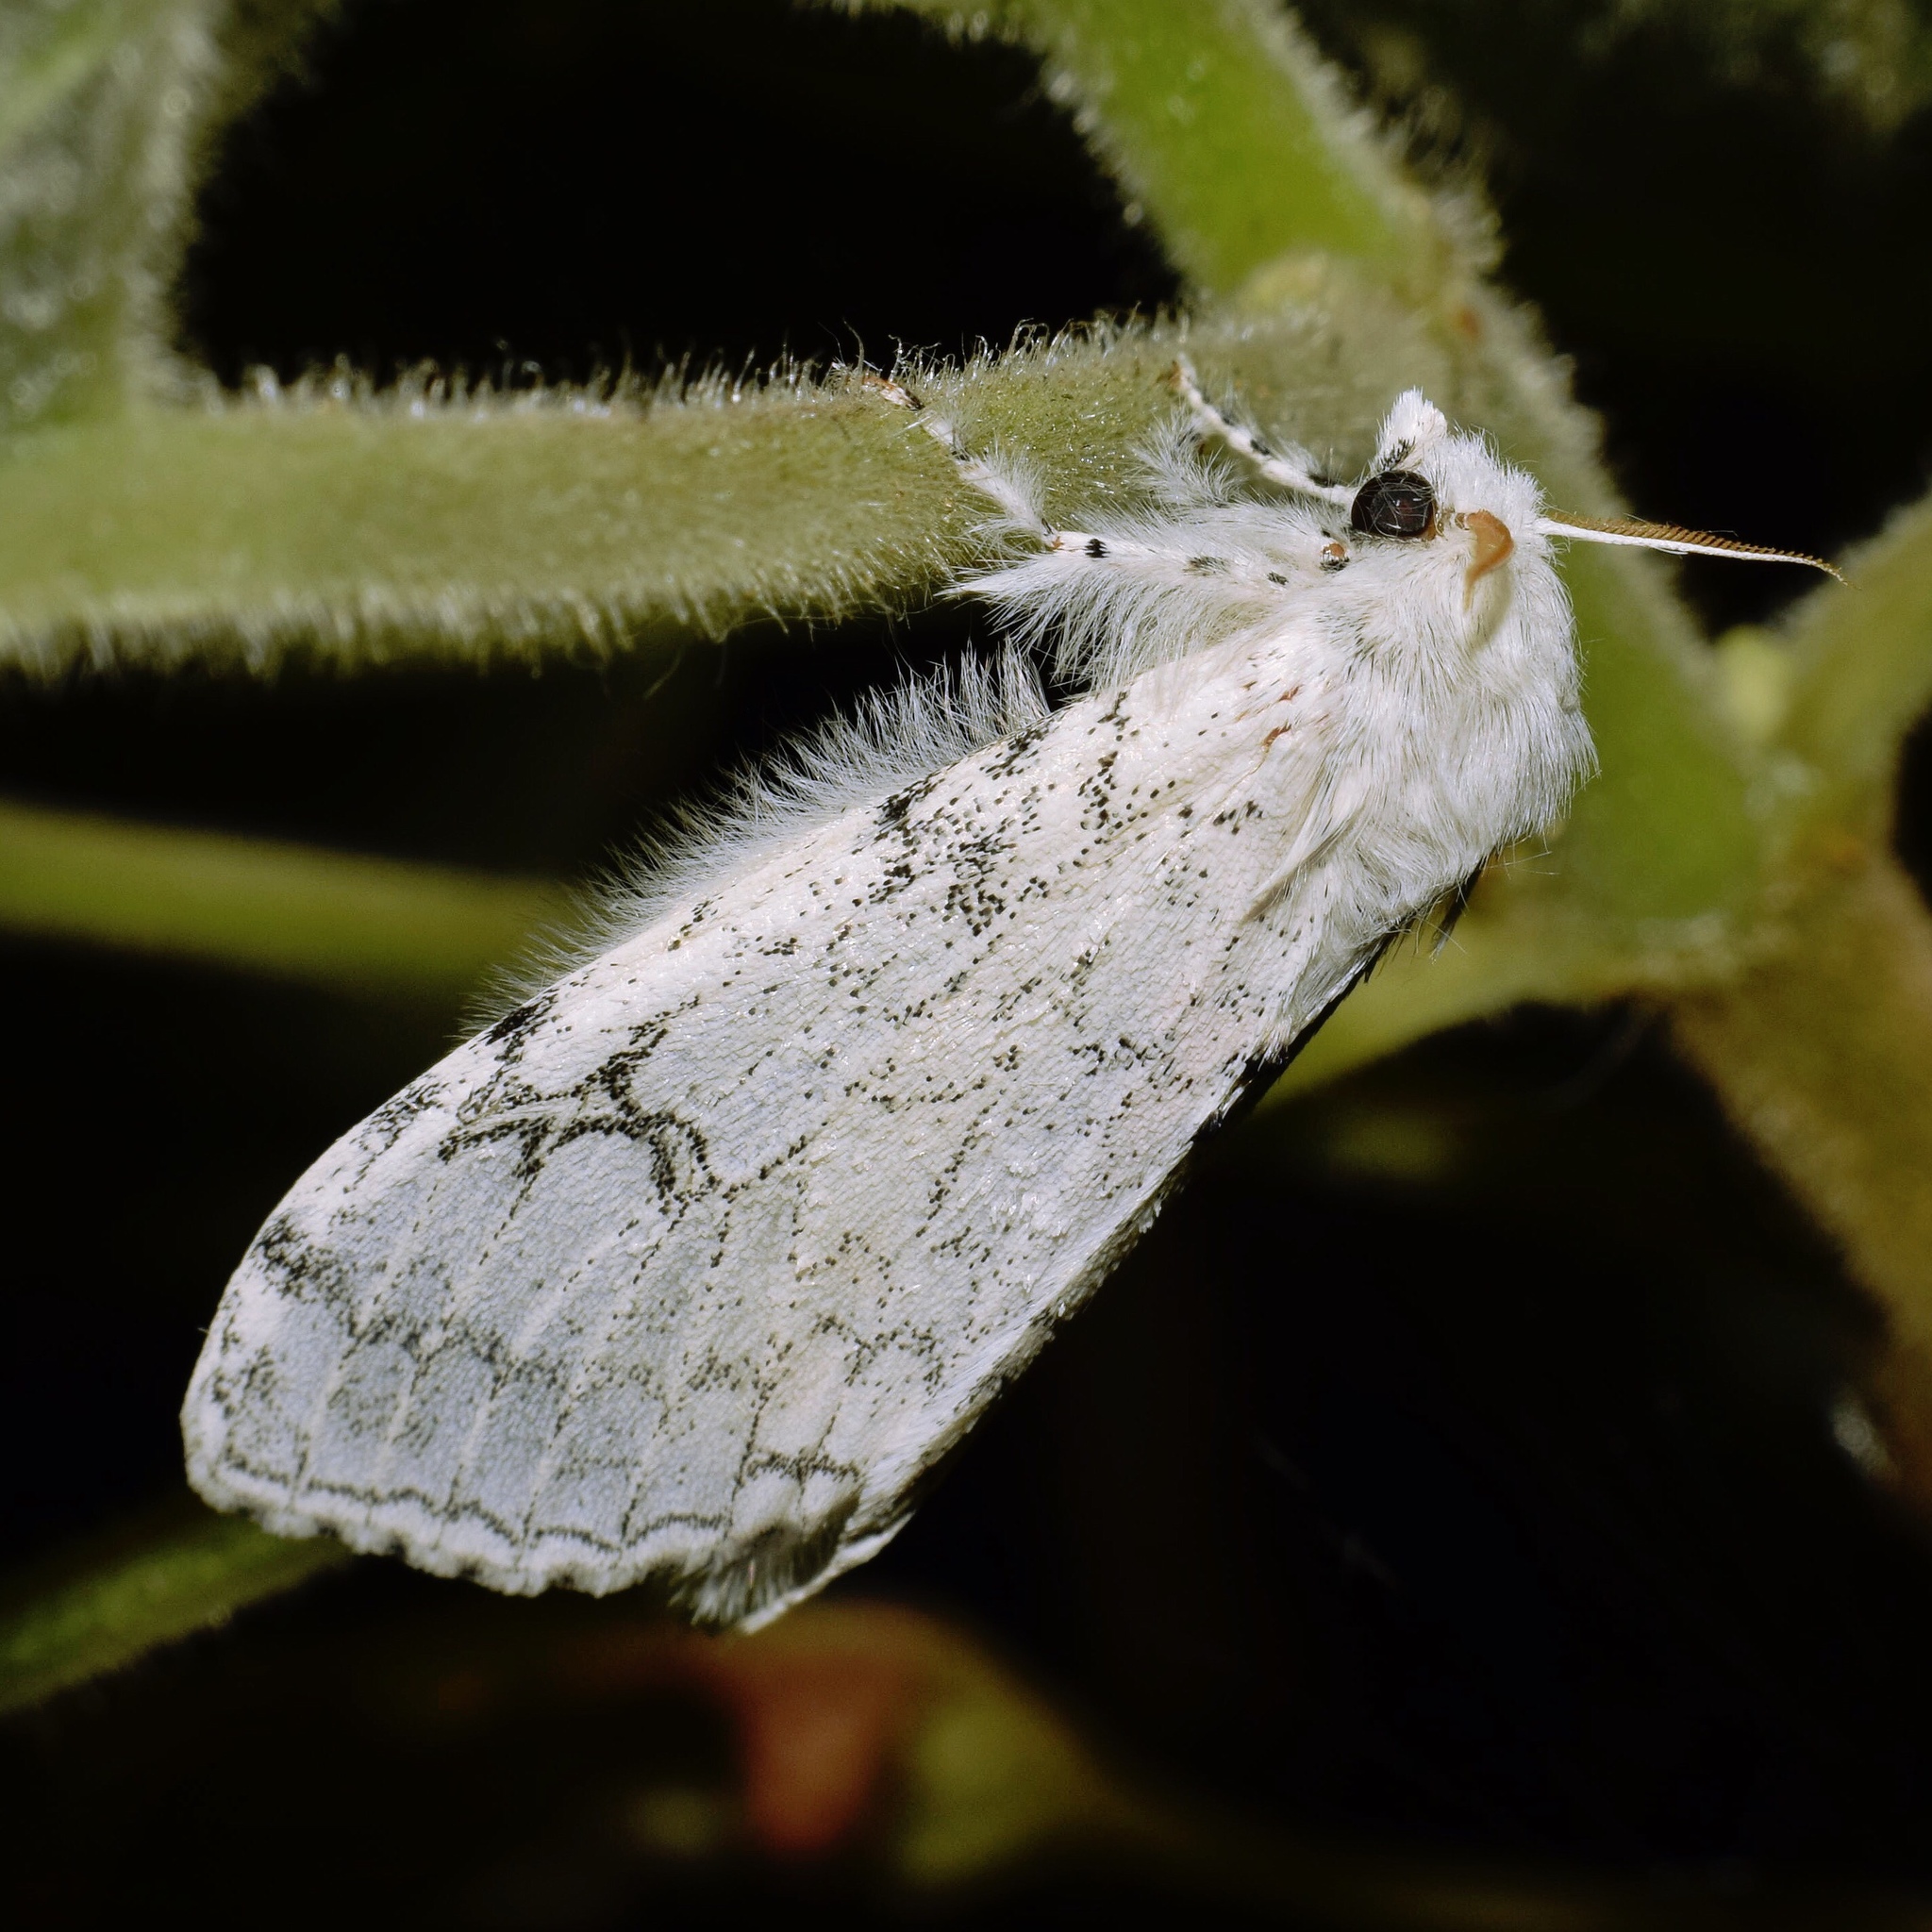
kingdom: Animalia
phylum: Arthropoda
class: Insecta
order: Lepidoptera
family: Erebidae
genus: Dasychira
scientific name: Dasychira georgiana
